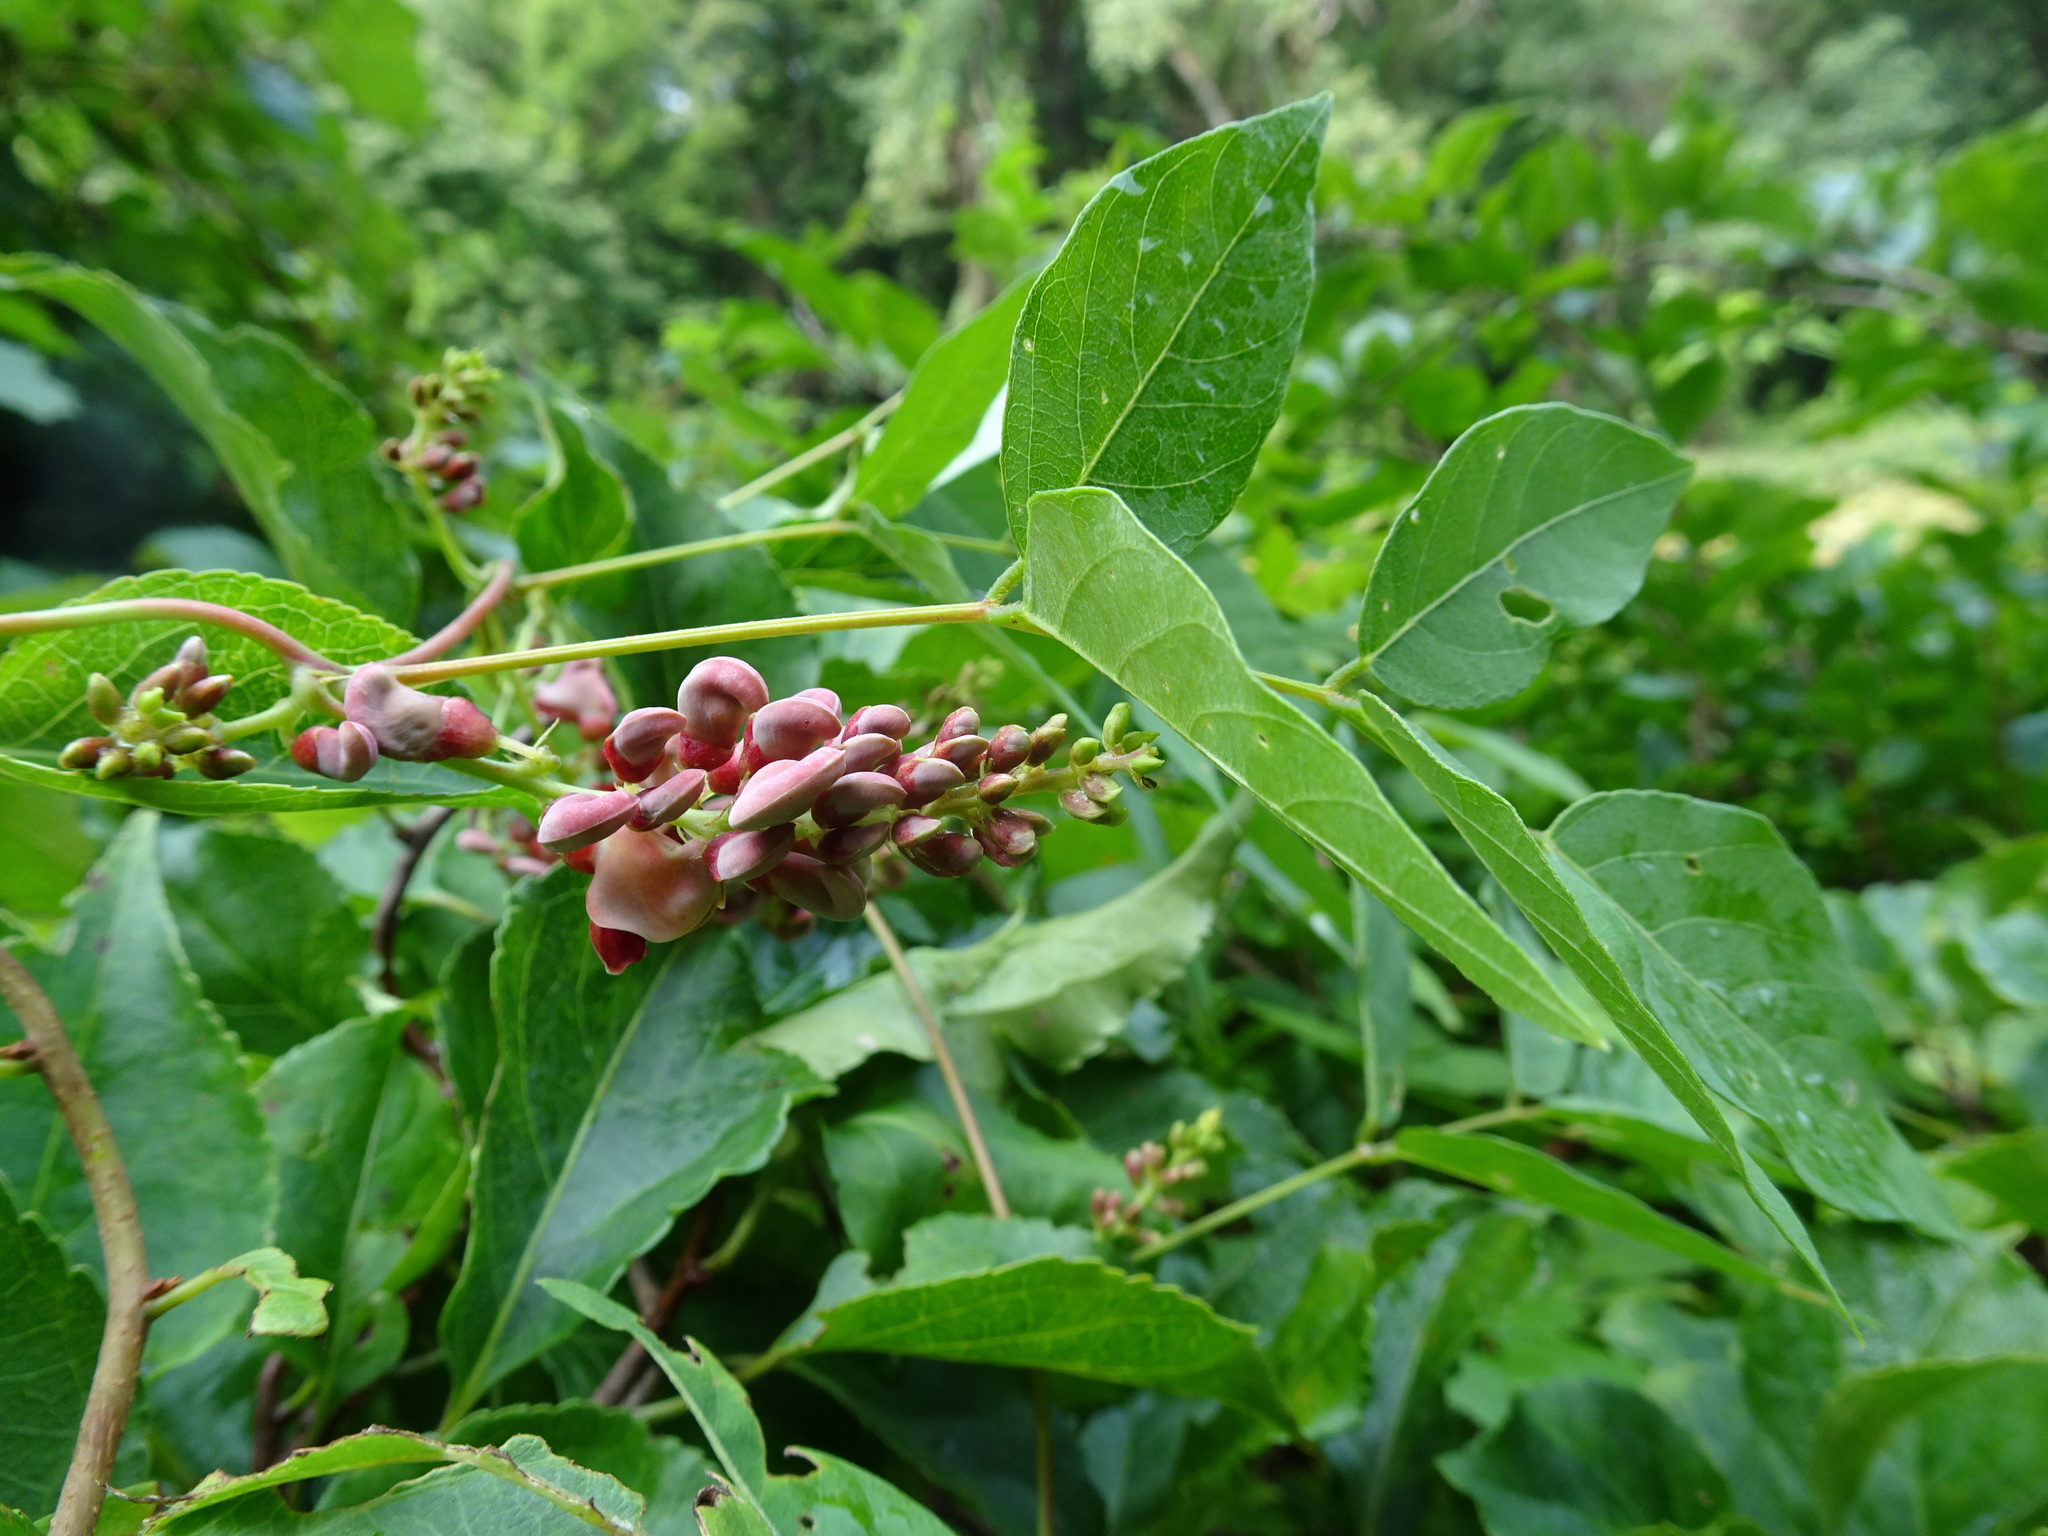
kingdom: Plantae
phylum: Tracheophyta
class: Magnoliopsida
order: Fabales
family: Fabaceae
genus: Apios
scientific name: Apios americana
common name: American potato-bean
